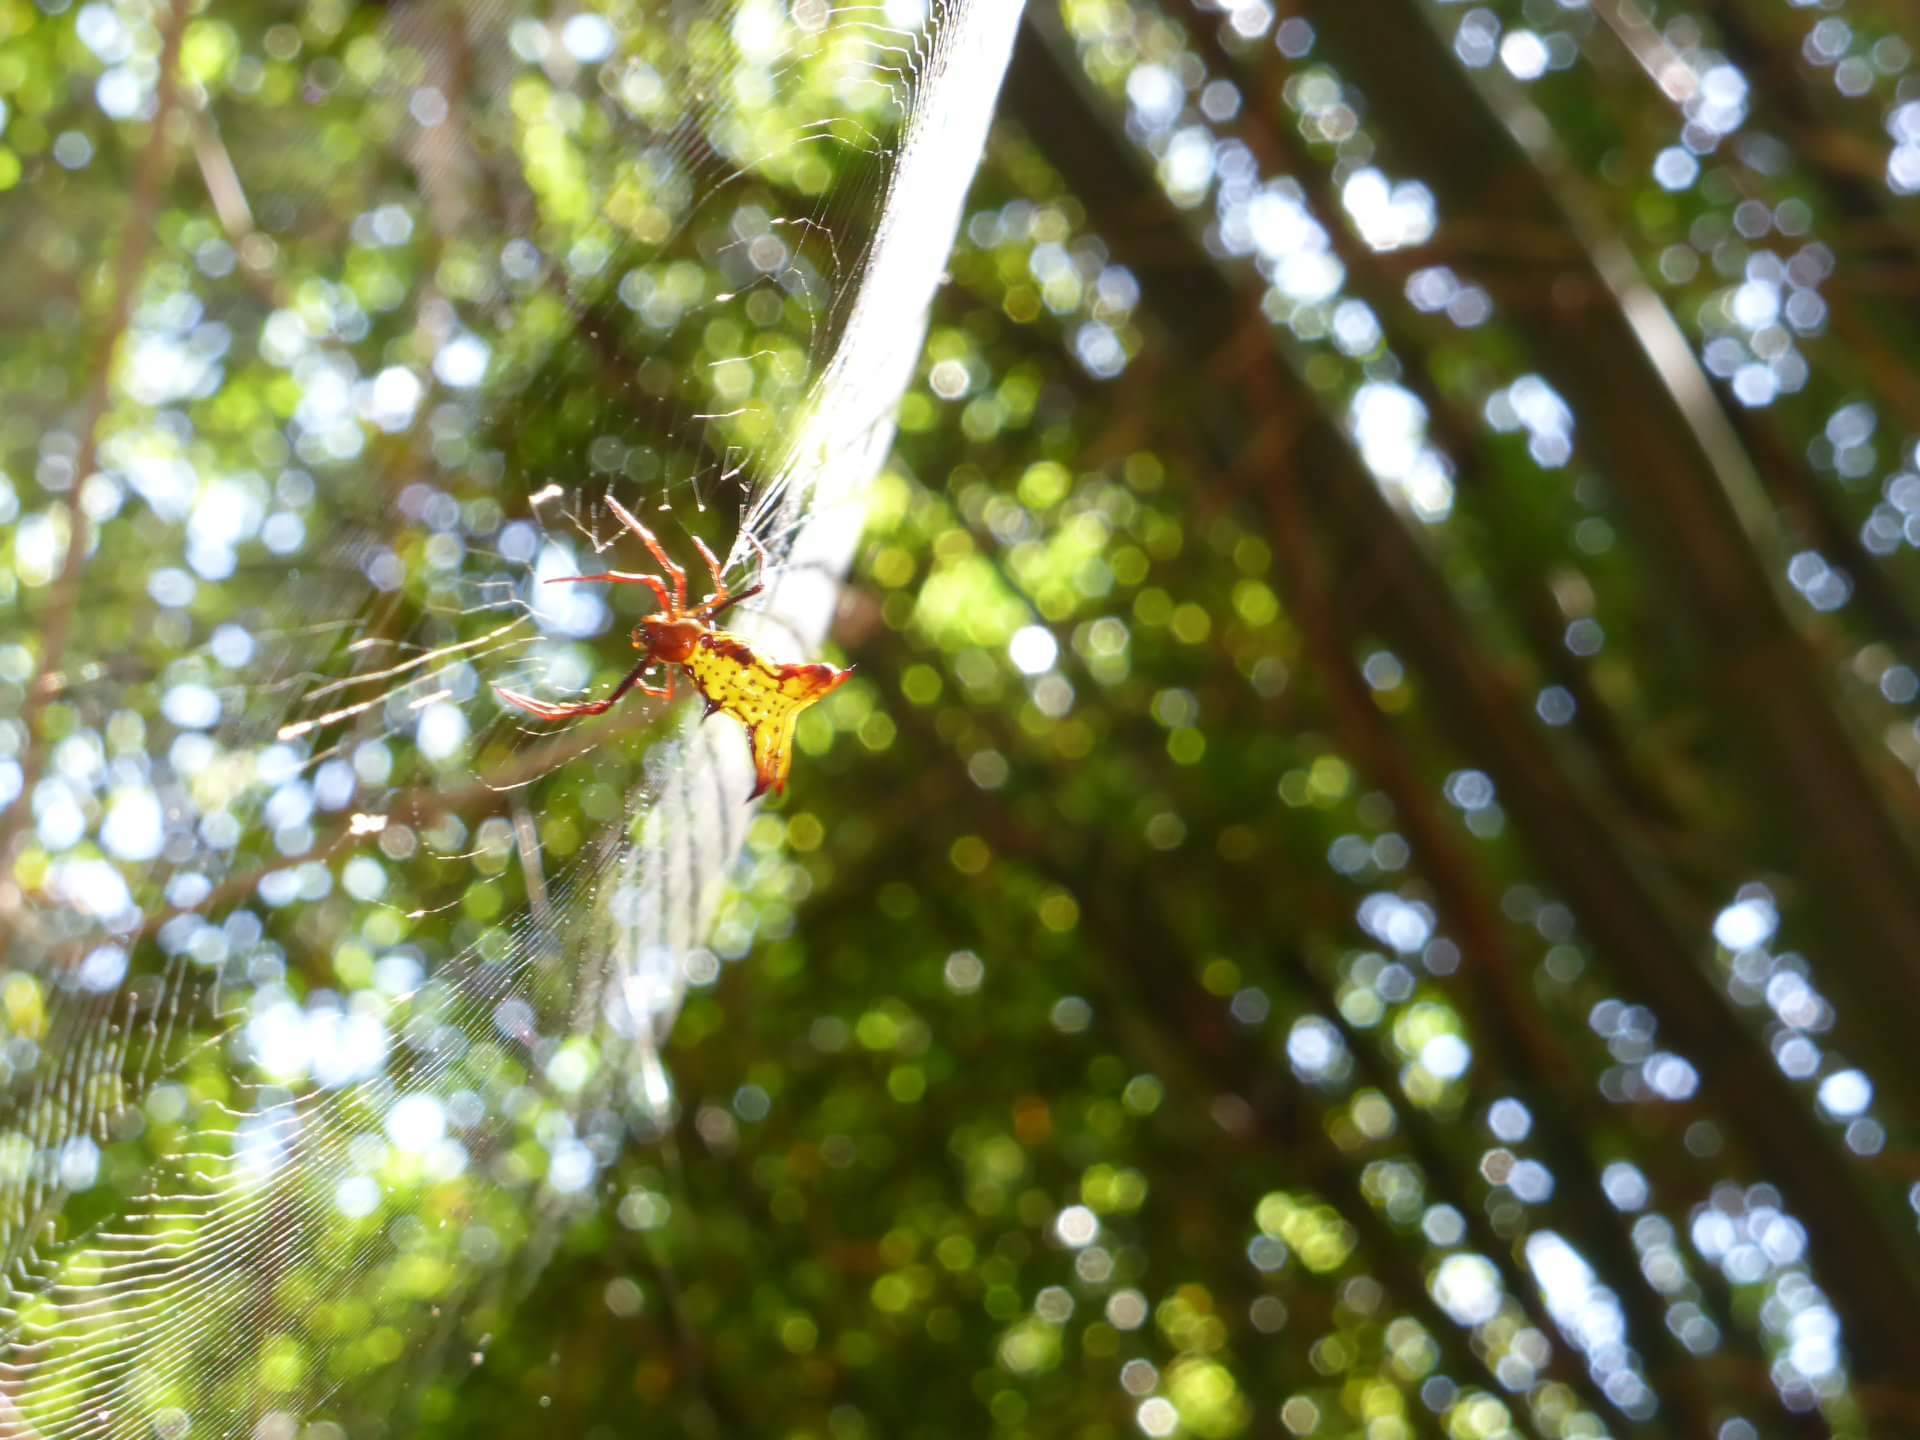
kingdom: Animalia
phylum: Arthropoda
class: Arachnida
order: Araneae
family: Araneidae
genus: Micrathena
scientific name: Micrathena fissispina
